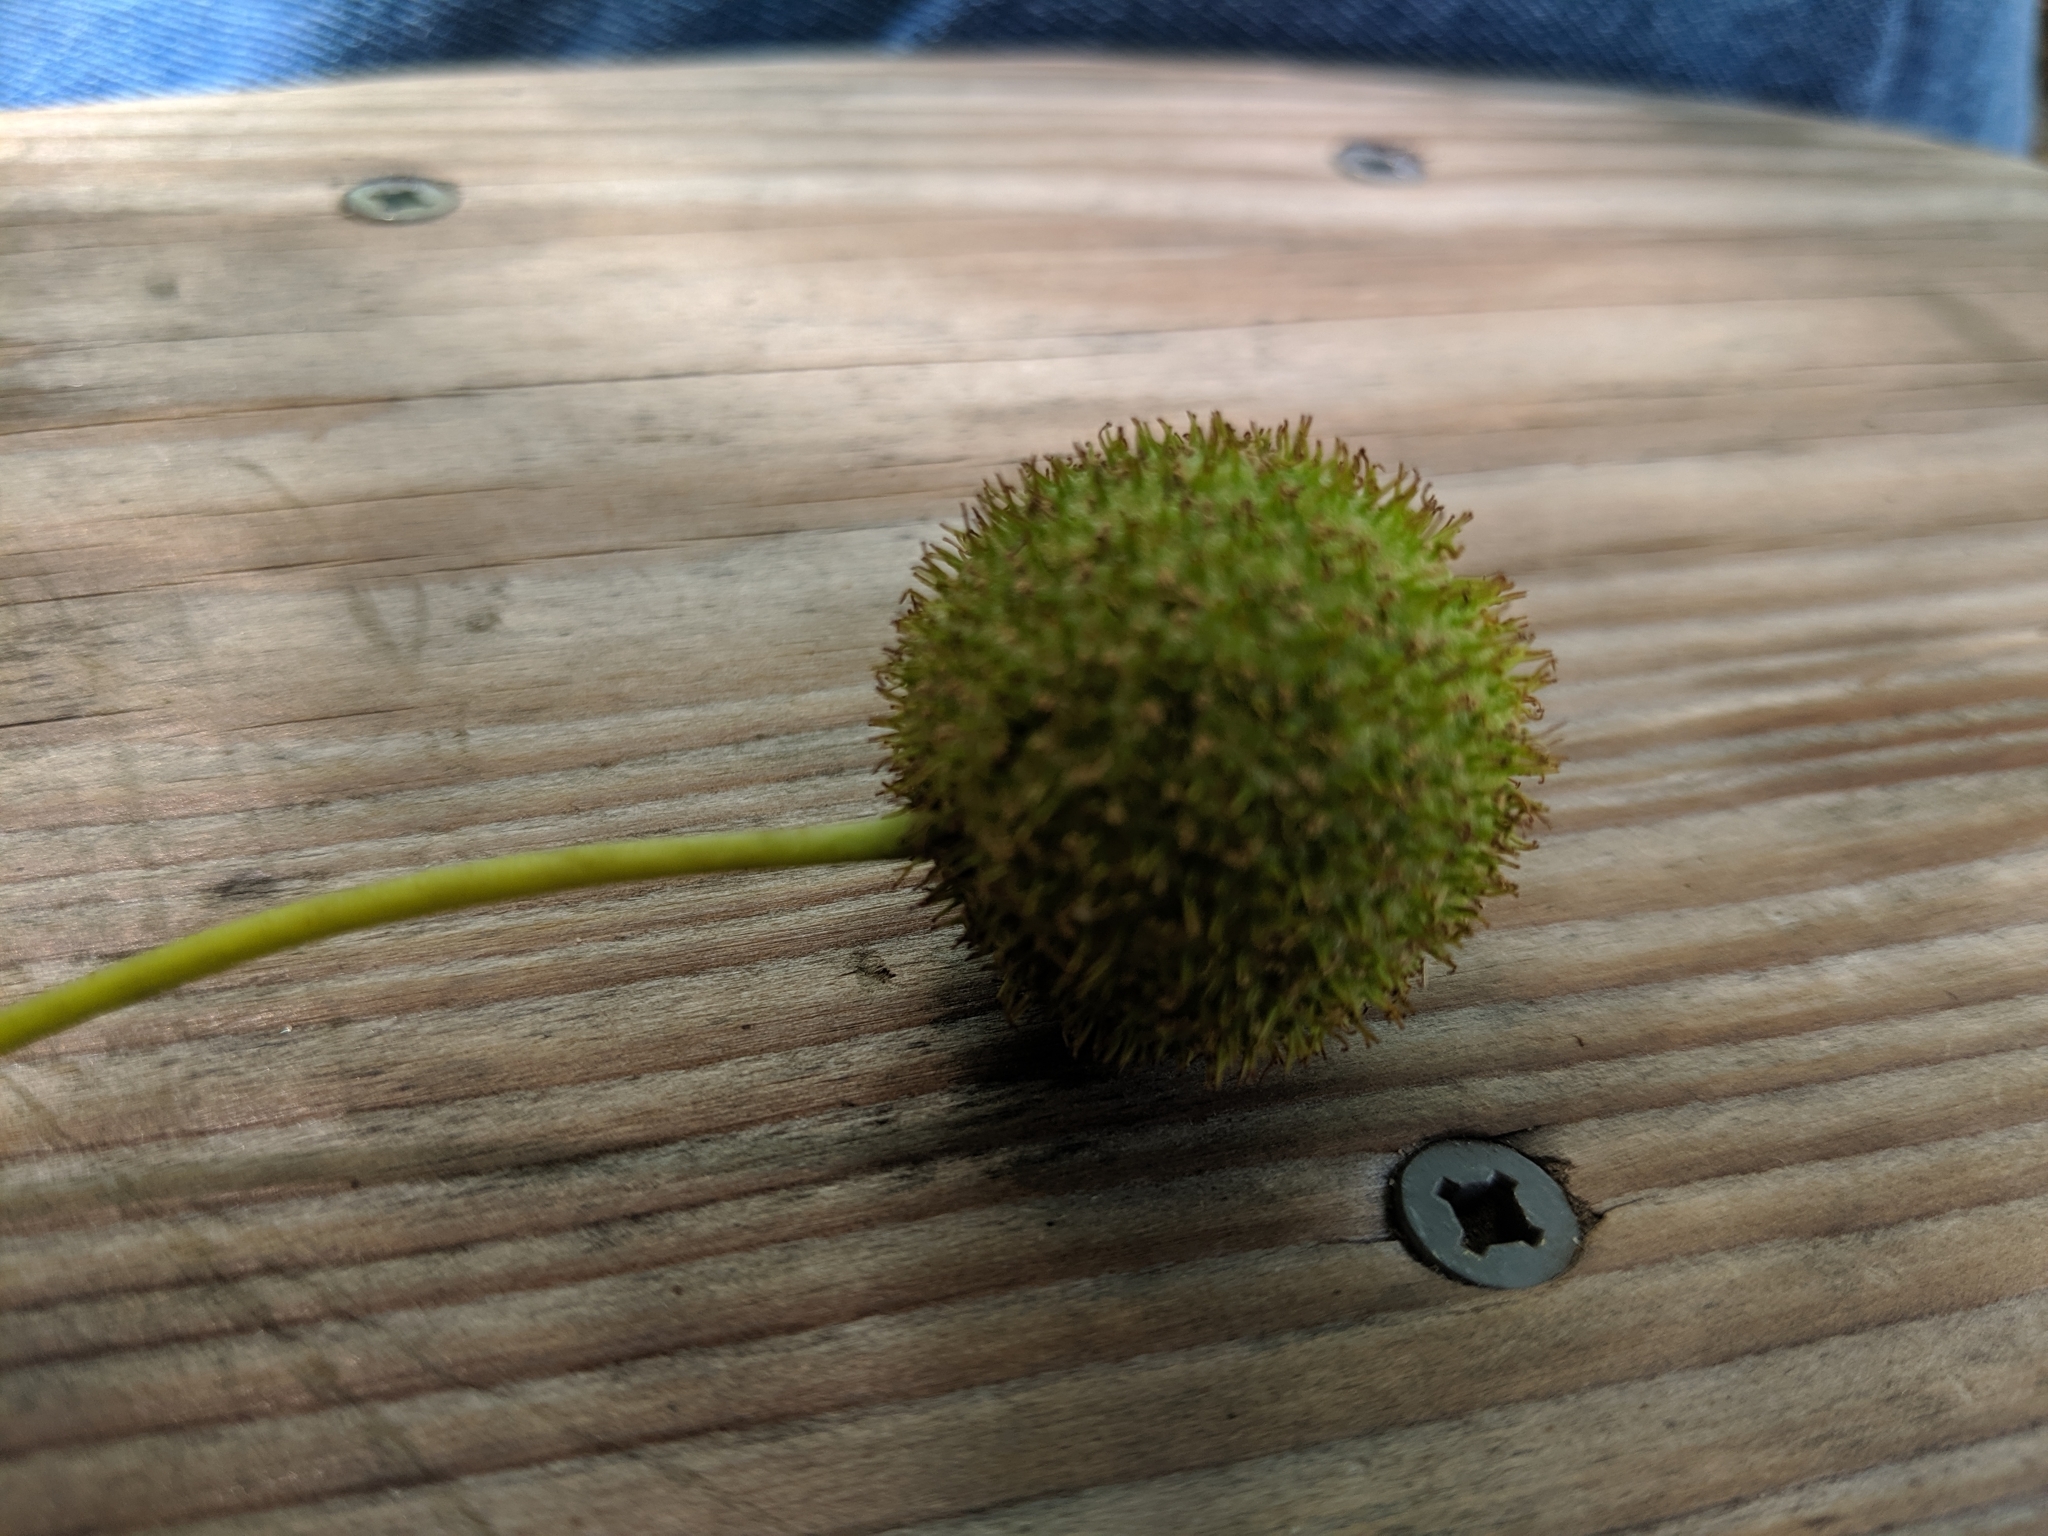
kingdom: Plantae
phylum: Tracheophyta
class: Magnoliopsida
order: Proteales
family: Platanaceae
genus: Platanus
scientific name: Platanus occidentalis
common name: American sycamore
